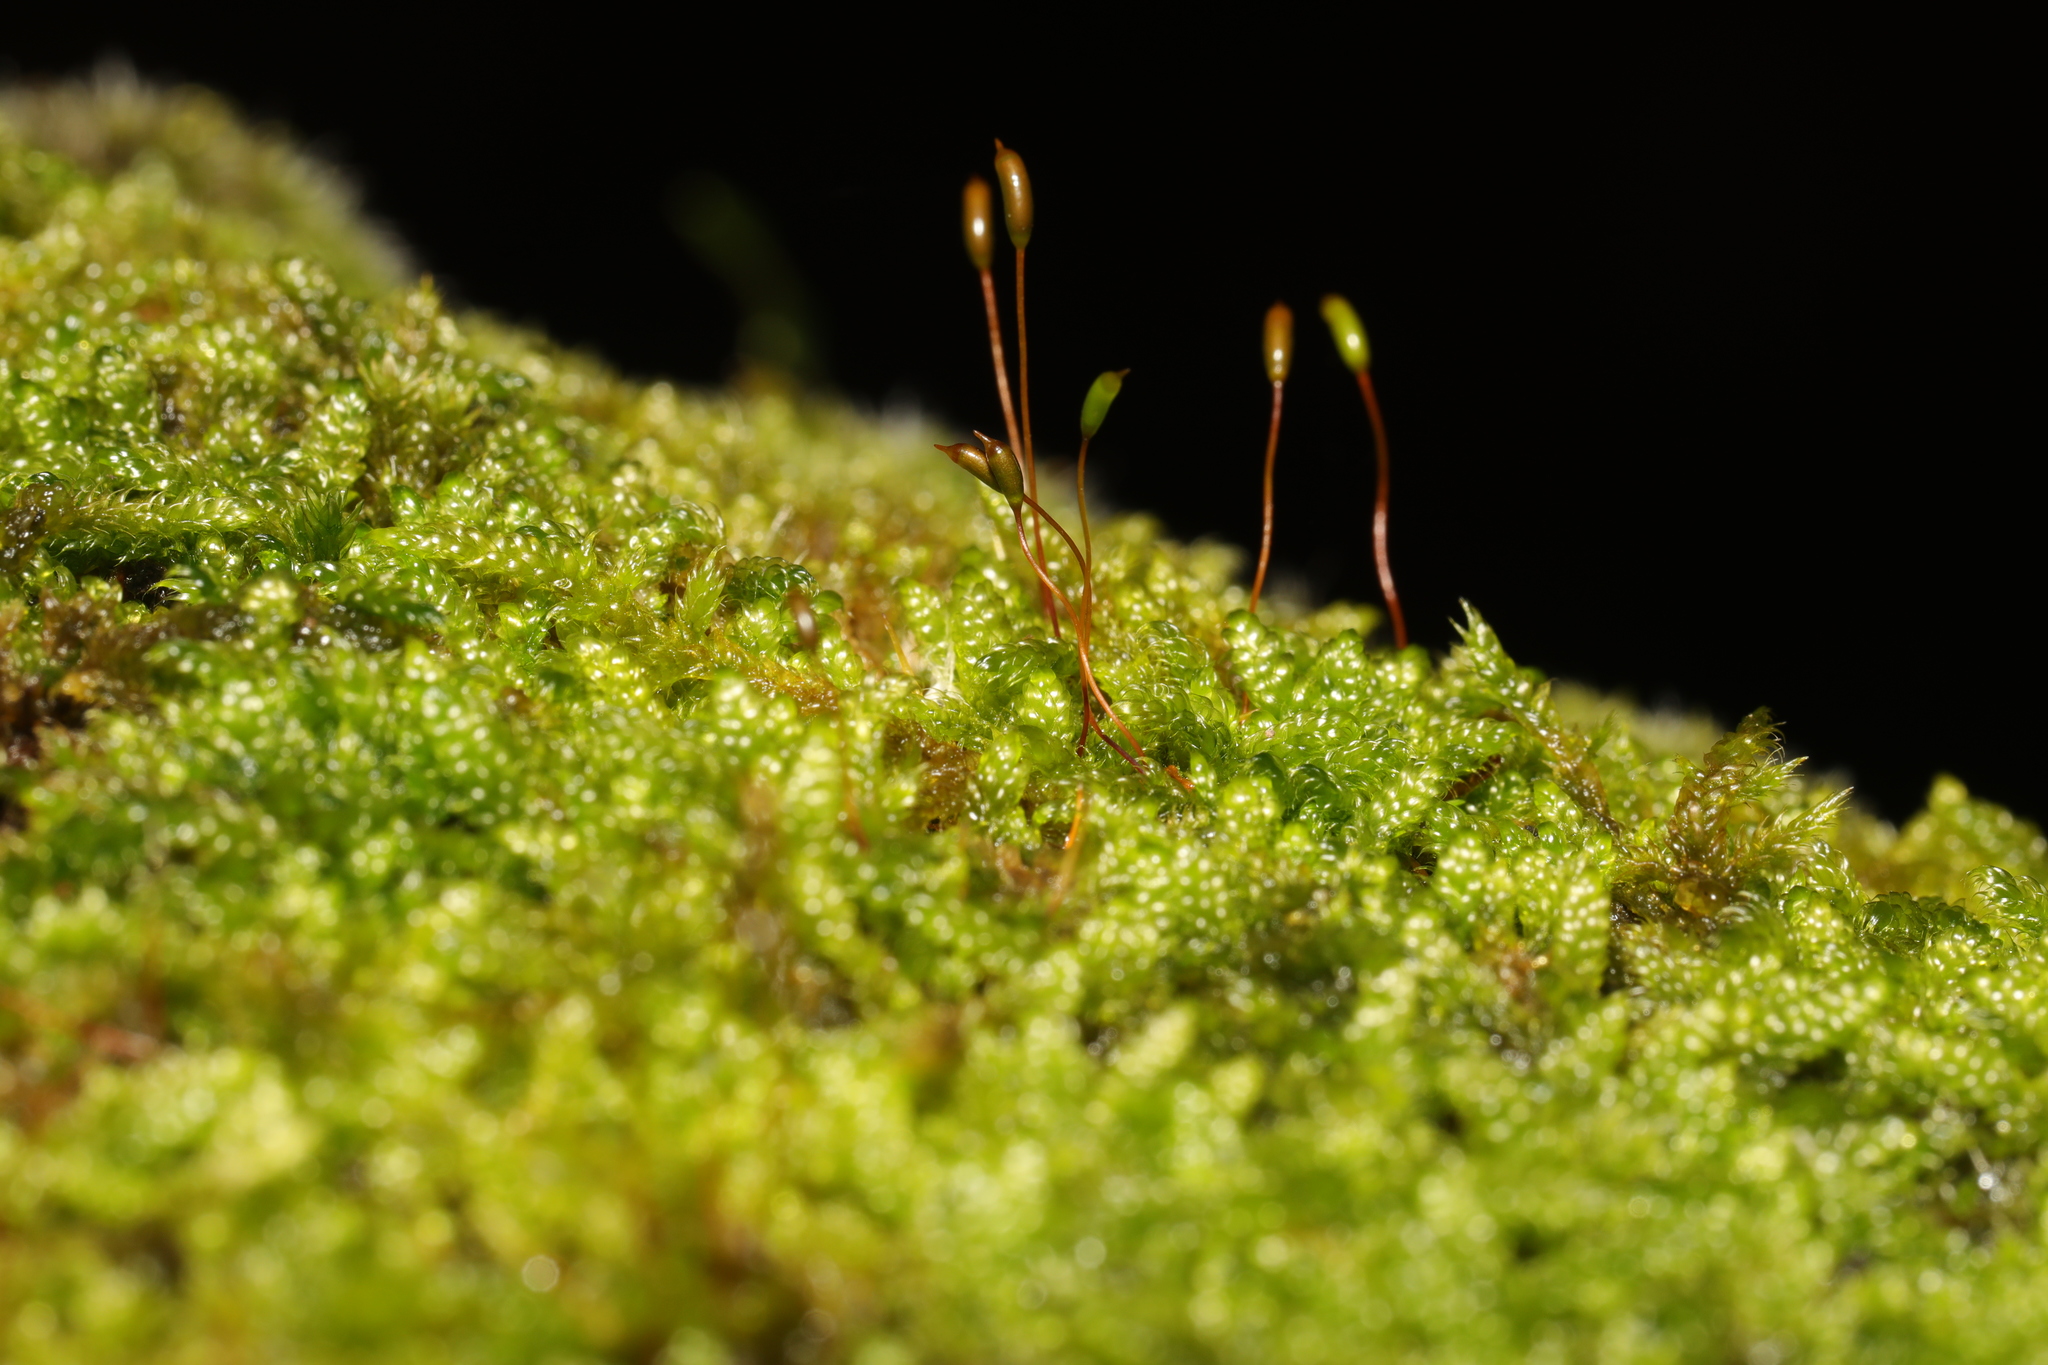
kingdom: Plantae
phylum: Bryophyta
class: Bryopsida
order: Hypnales
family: Hypnaceae
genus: Hypnum
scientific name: Hypnum cupressiforme
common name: Cypress-leaved plait-moss
